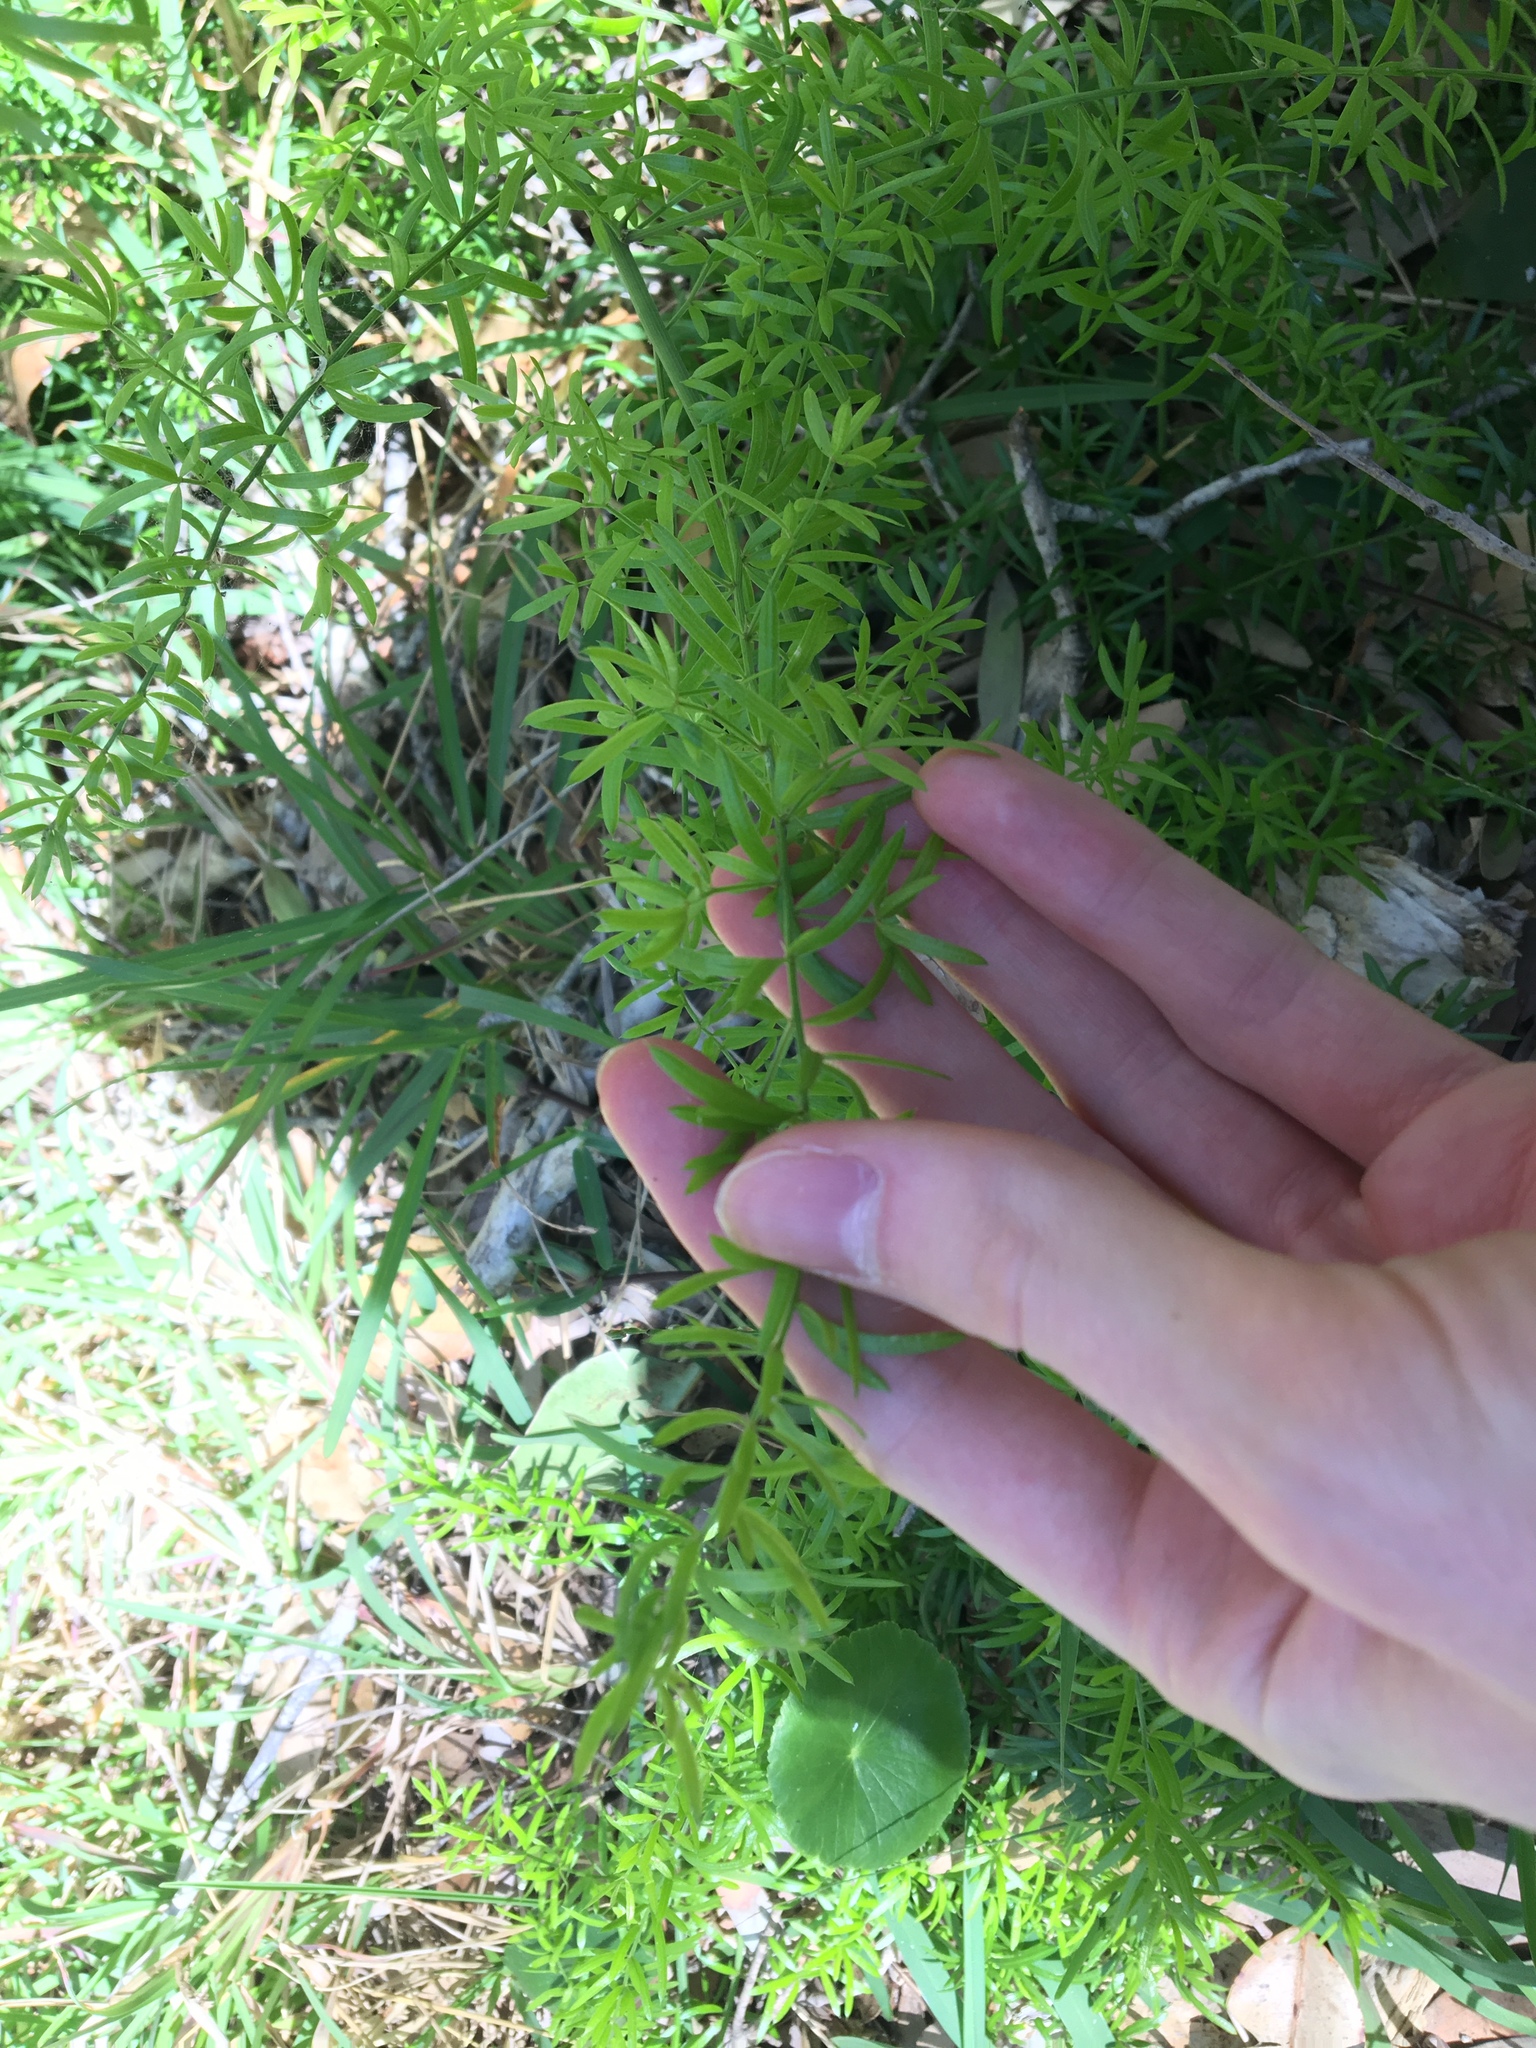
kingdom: Plantae
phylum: Tracheophyta
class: Liliopsida
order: Asparagales
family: Asparagaceae
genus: Asparagus
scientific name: Asparagus aethiopicus
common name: Sprenger's asparagus fern
